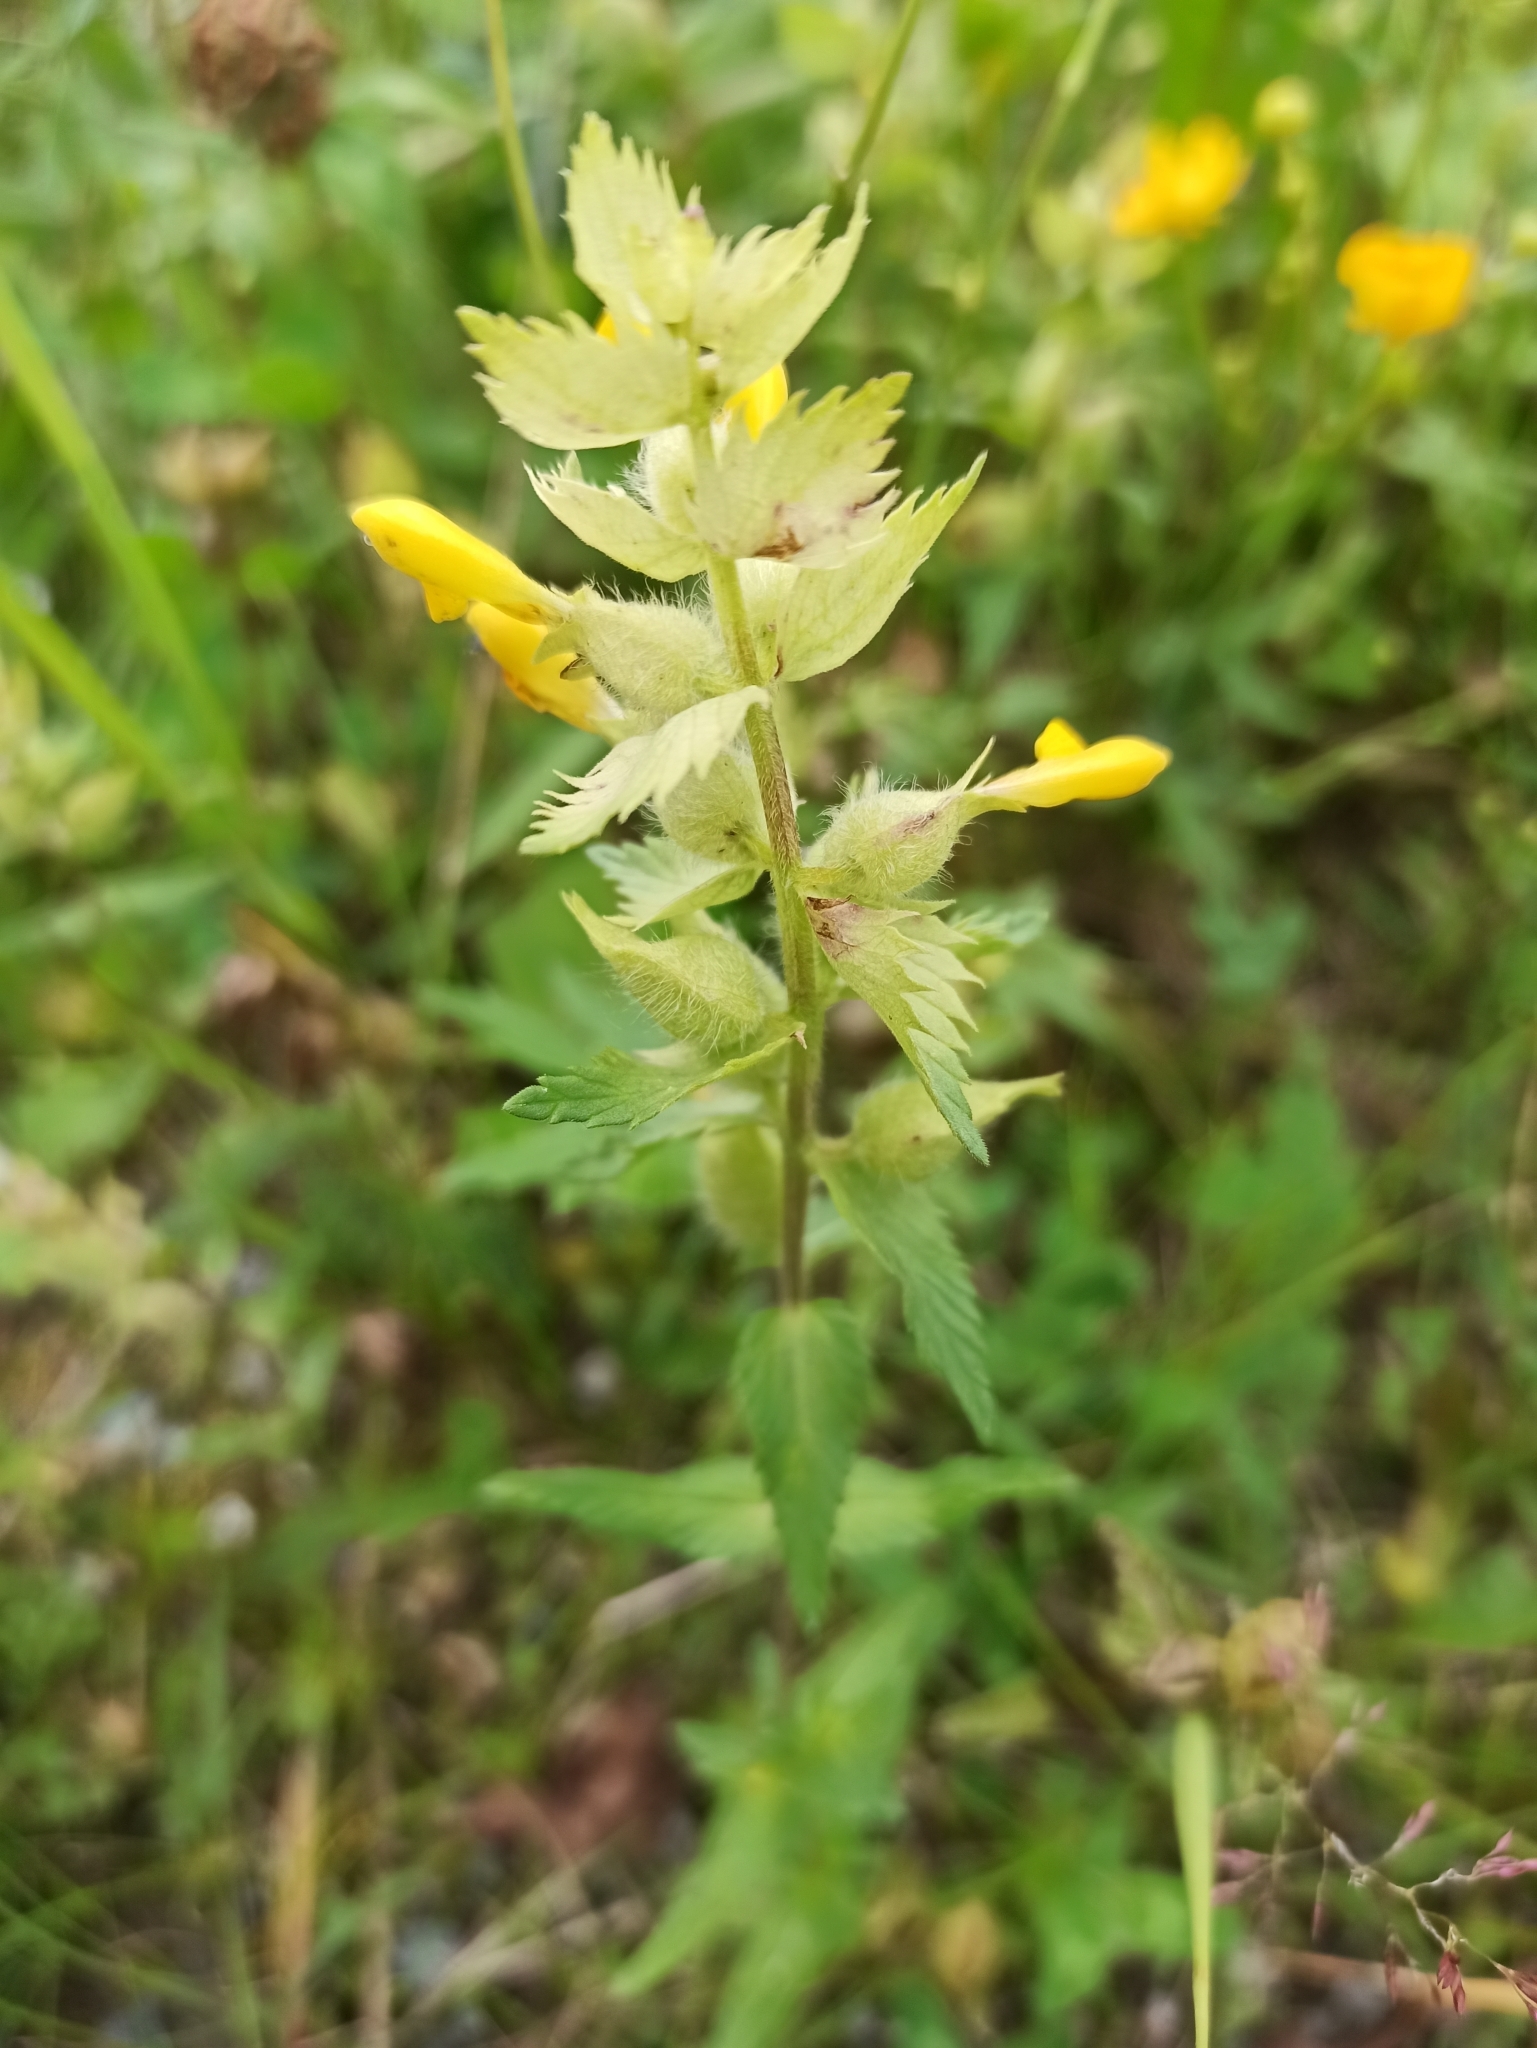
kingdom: Plantae
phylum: Tracheophyta
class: Magnoliopsida
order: Lamiales
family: Orobanchaceae
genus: Rhinanthus
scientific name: Rhinanthus alectorolophus
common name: Greater yellow-rattle
